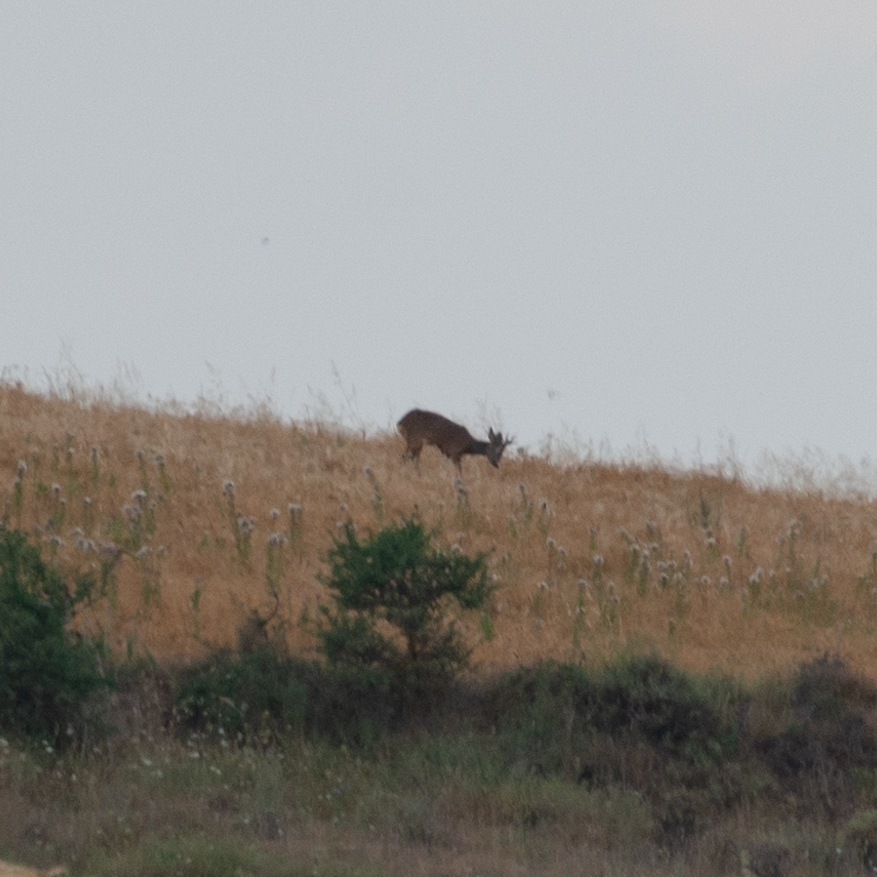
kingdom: Animalia
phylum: Chordata
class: Mammalia
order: Artiodactyla
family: Cervidae
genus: Capreolus
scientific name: Capreolus capreolus
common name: Western roe deer
